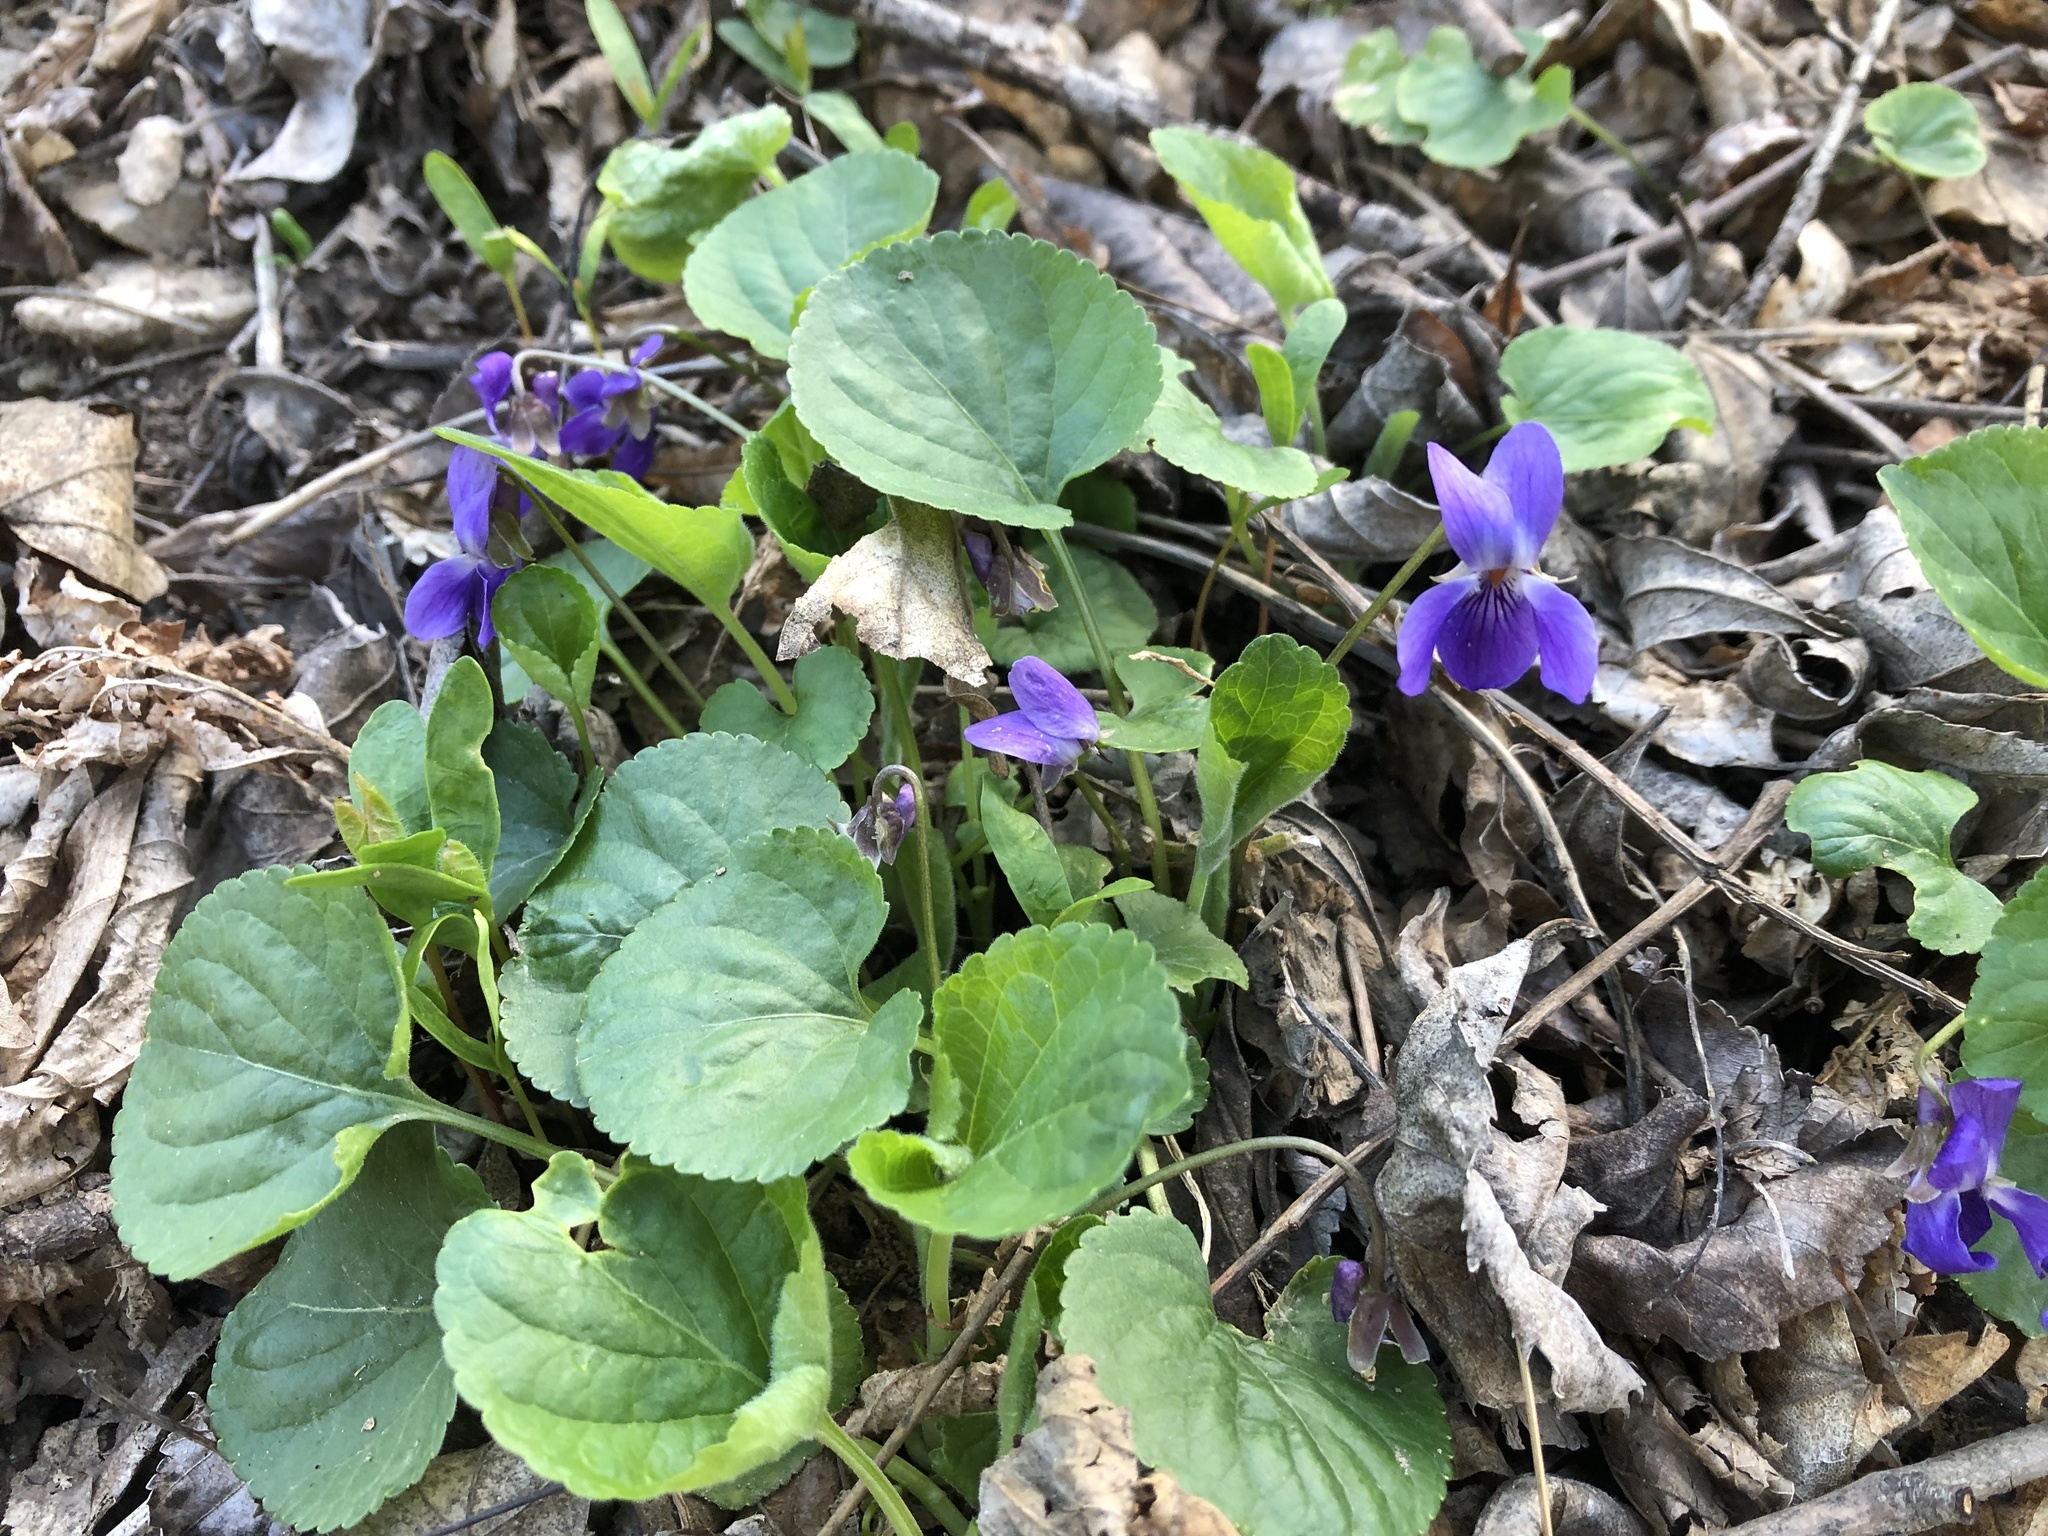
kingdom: Plantae
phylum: Tracheophyta
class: Magnoliopsida
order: Malpighiales
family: Violaceae
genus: Viola
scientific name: Viola odorata
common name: Sweet violet
